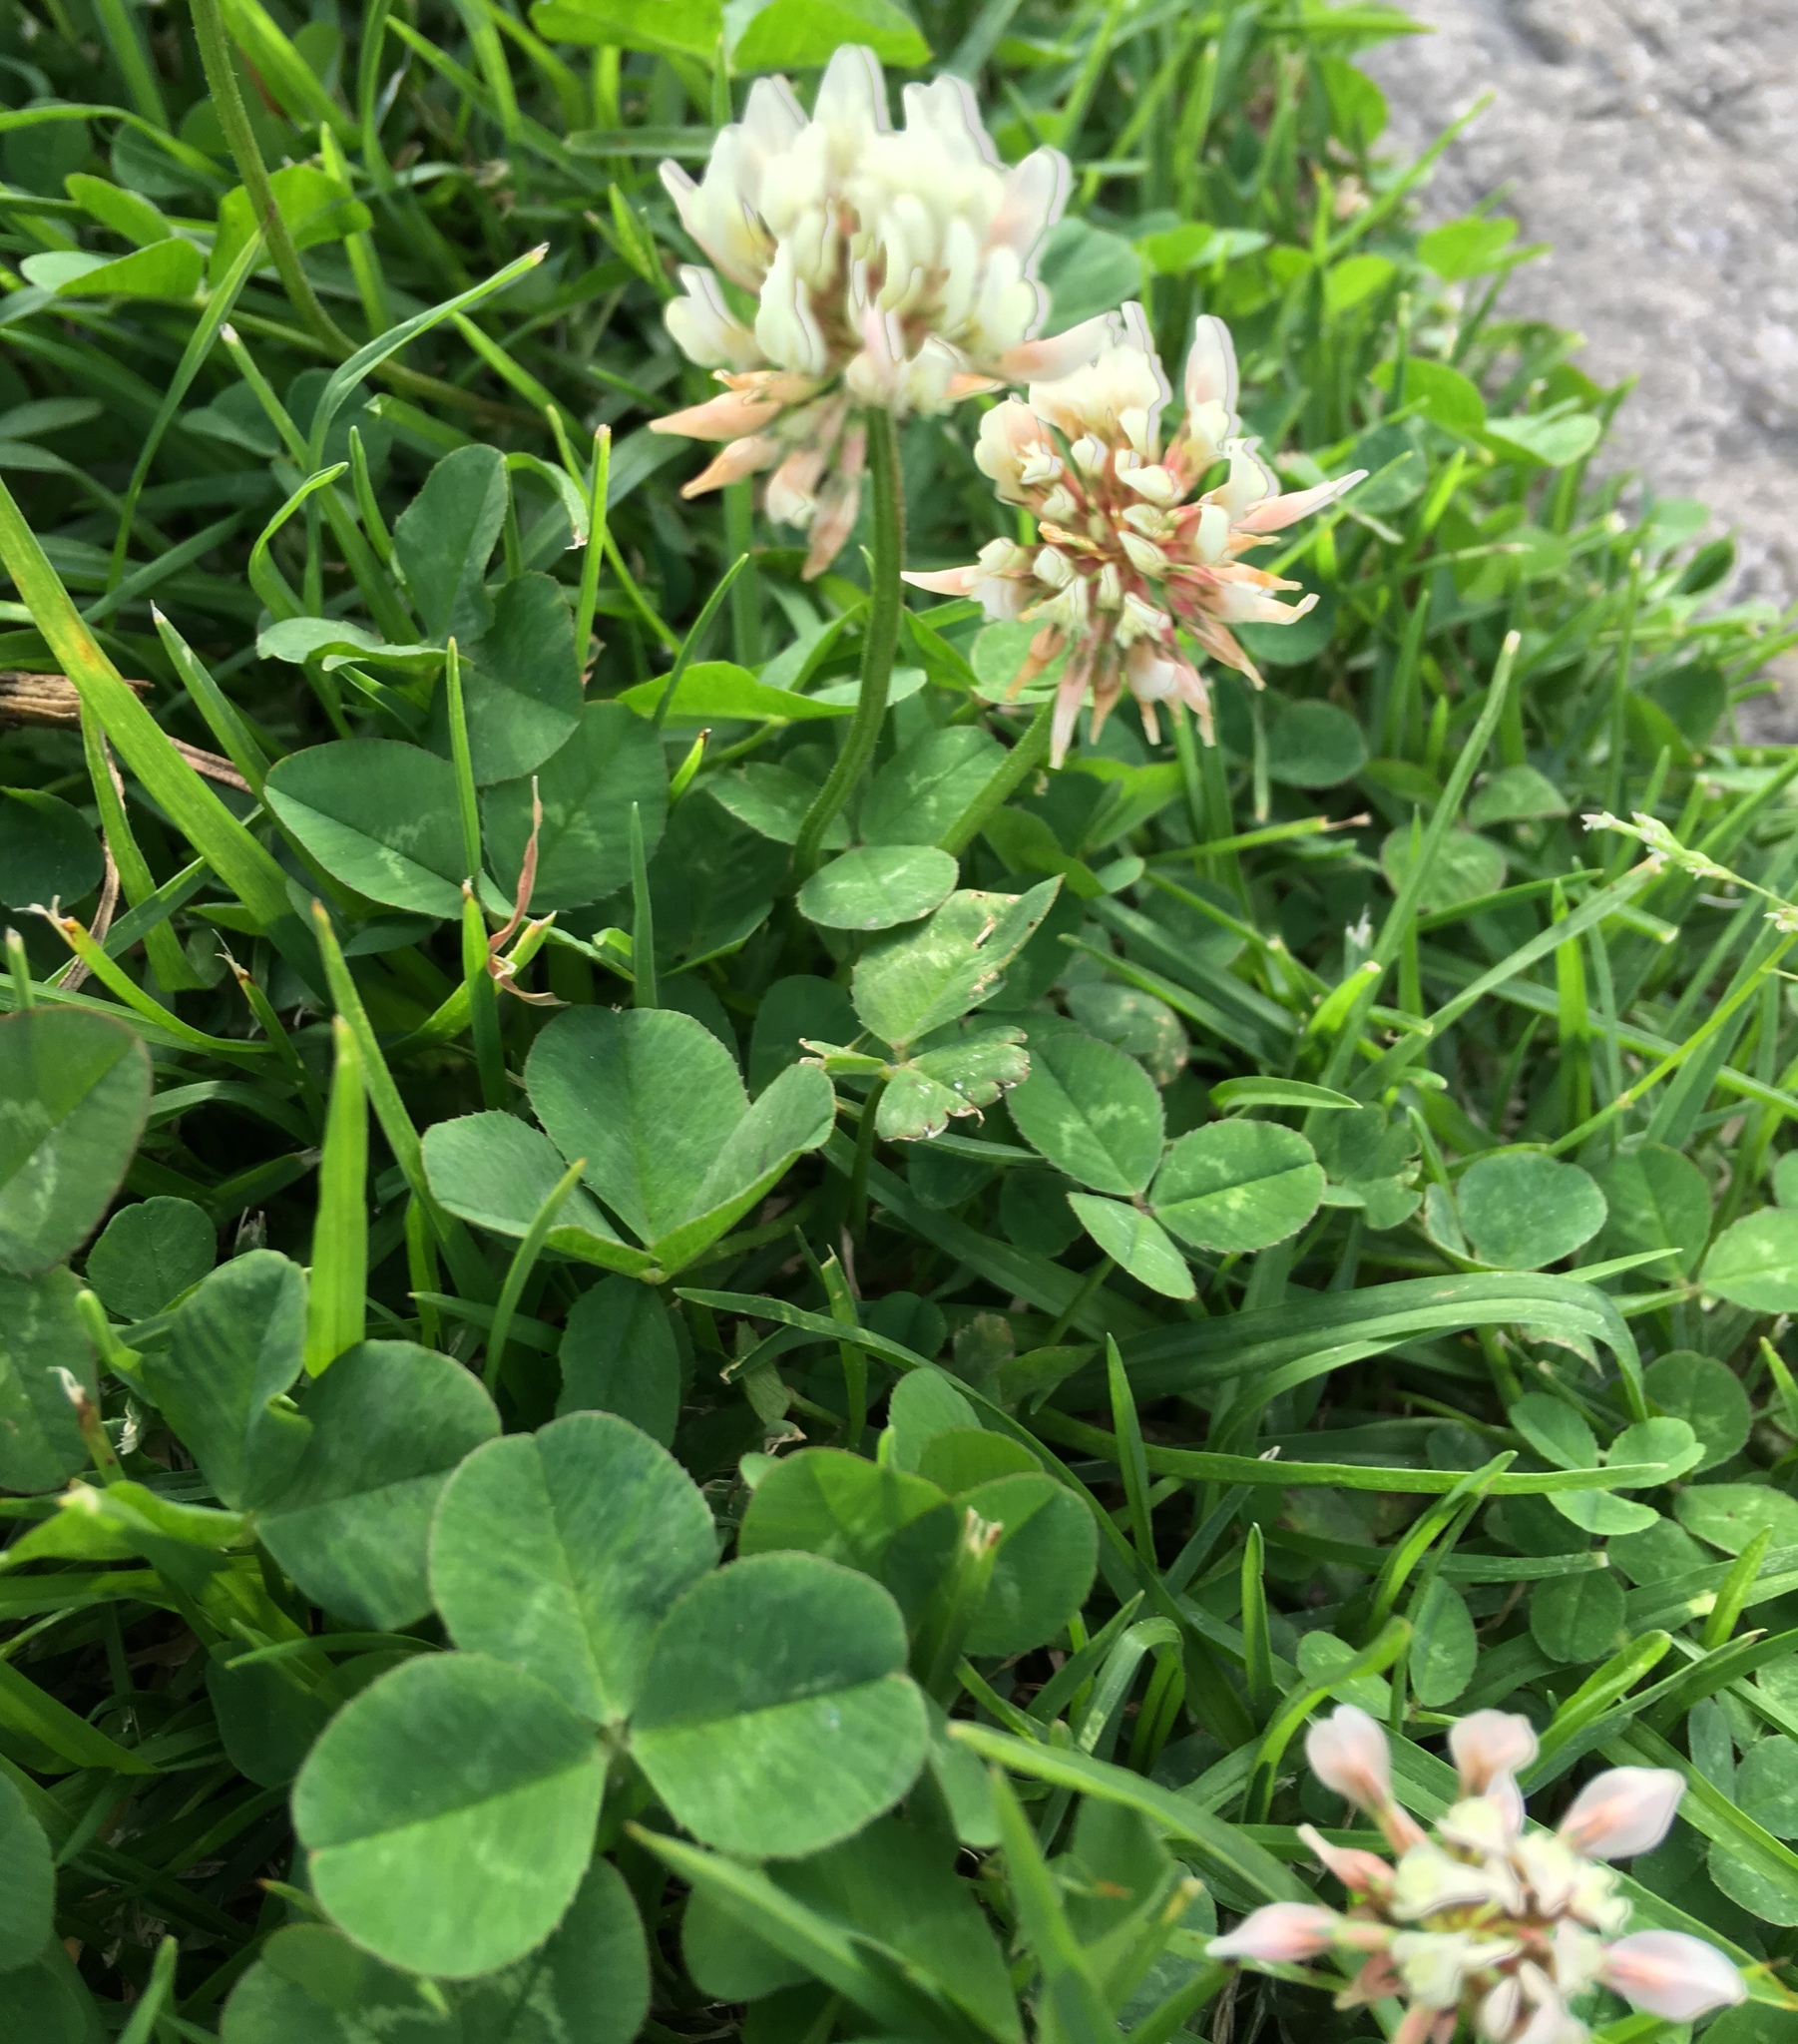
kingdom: Plantae
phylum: Tracheophyta
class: Magnoliopsida
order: Fabales
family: Fabaceae
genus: Trifolium
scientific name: Trifolium repens
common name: White clover
